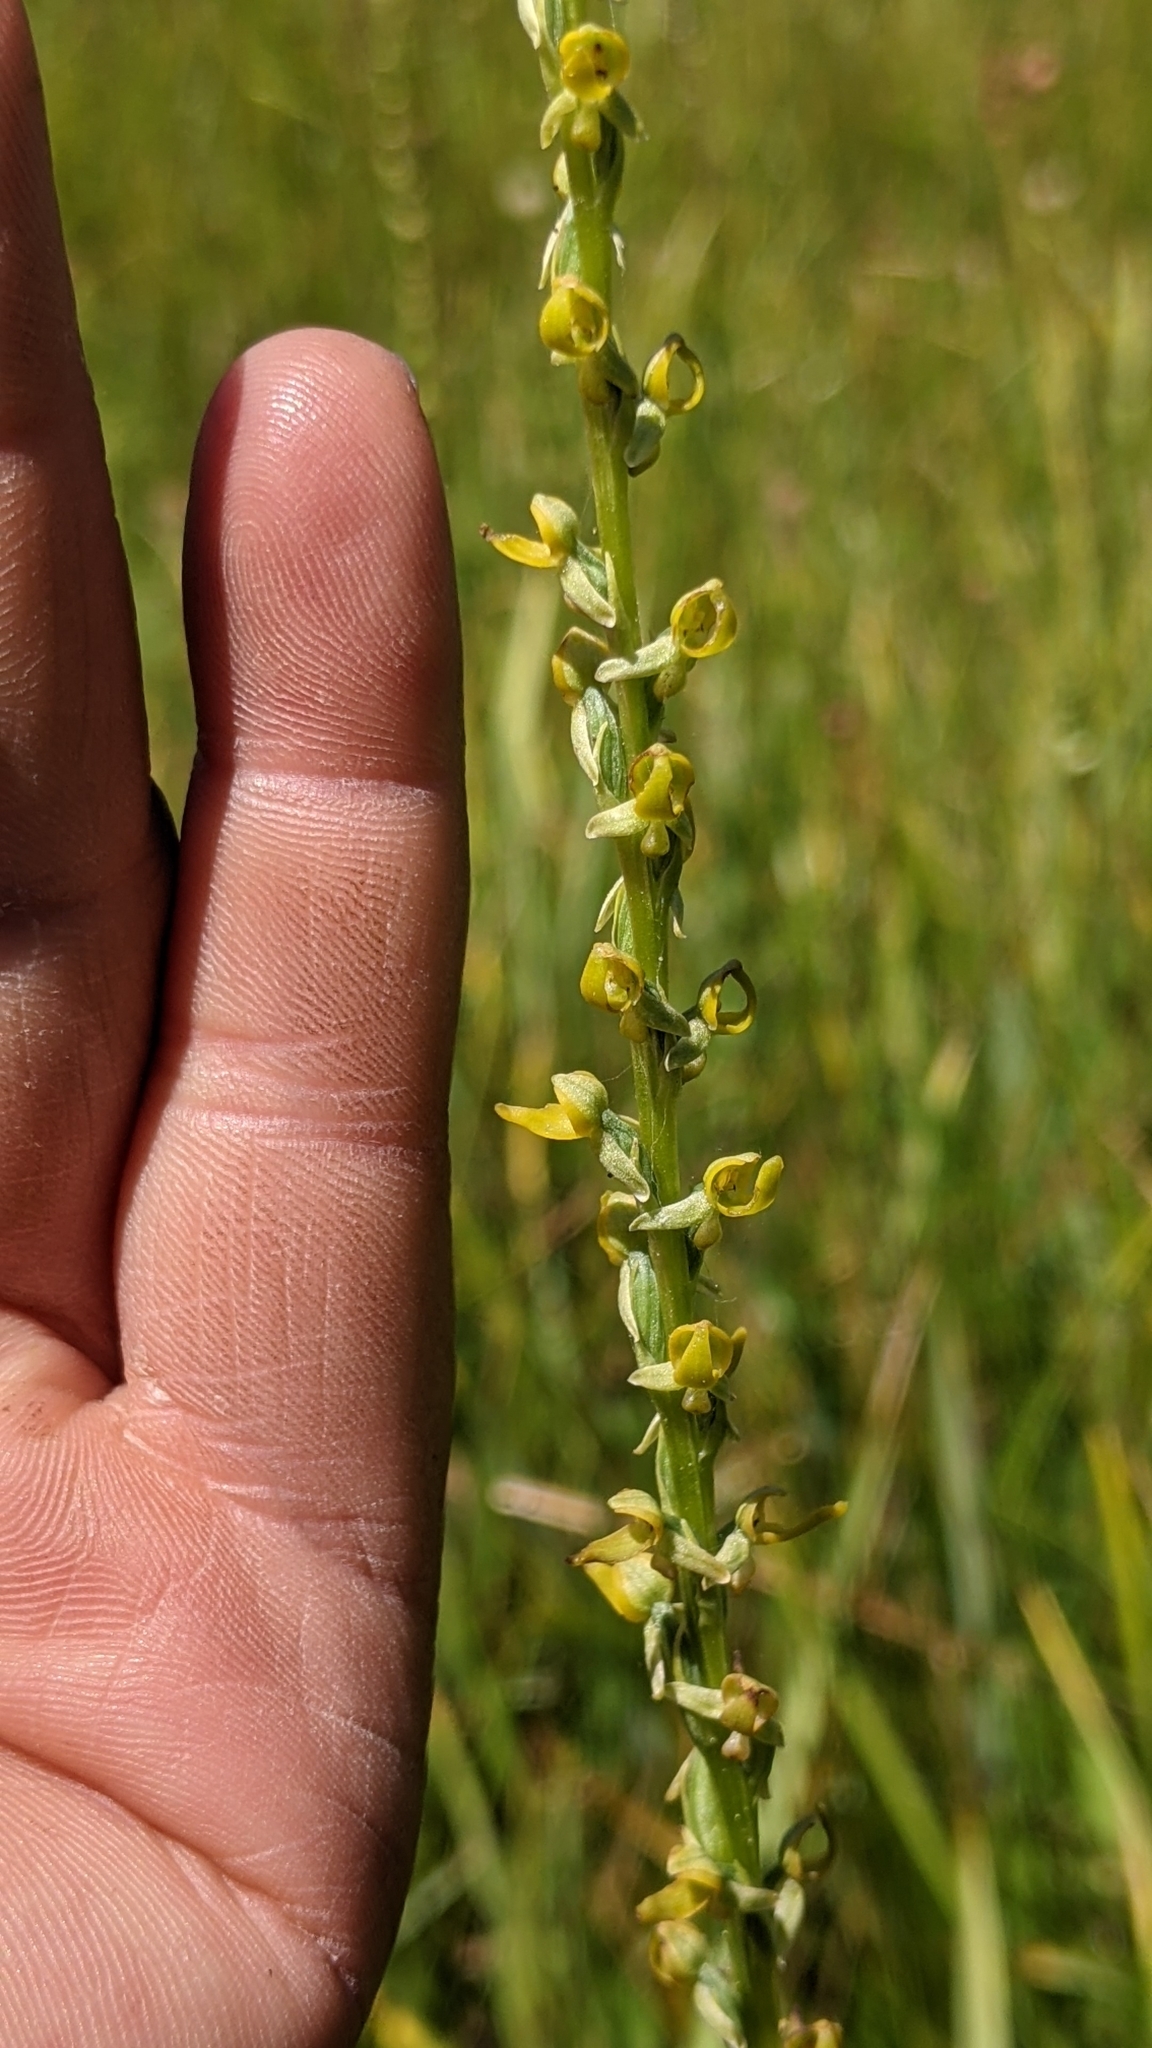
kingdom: Plantae
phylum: Tracheophyta
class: Liliopsida
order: Asparagales
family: Orchidaceae
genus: Platanthera
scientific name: Platanthera yosemitensis
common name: Yosemite bog orchid
